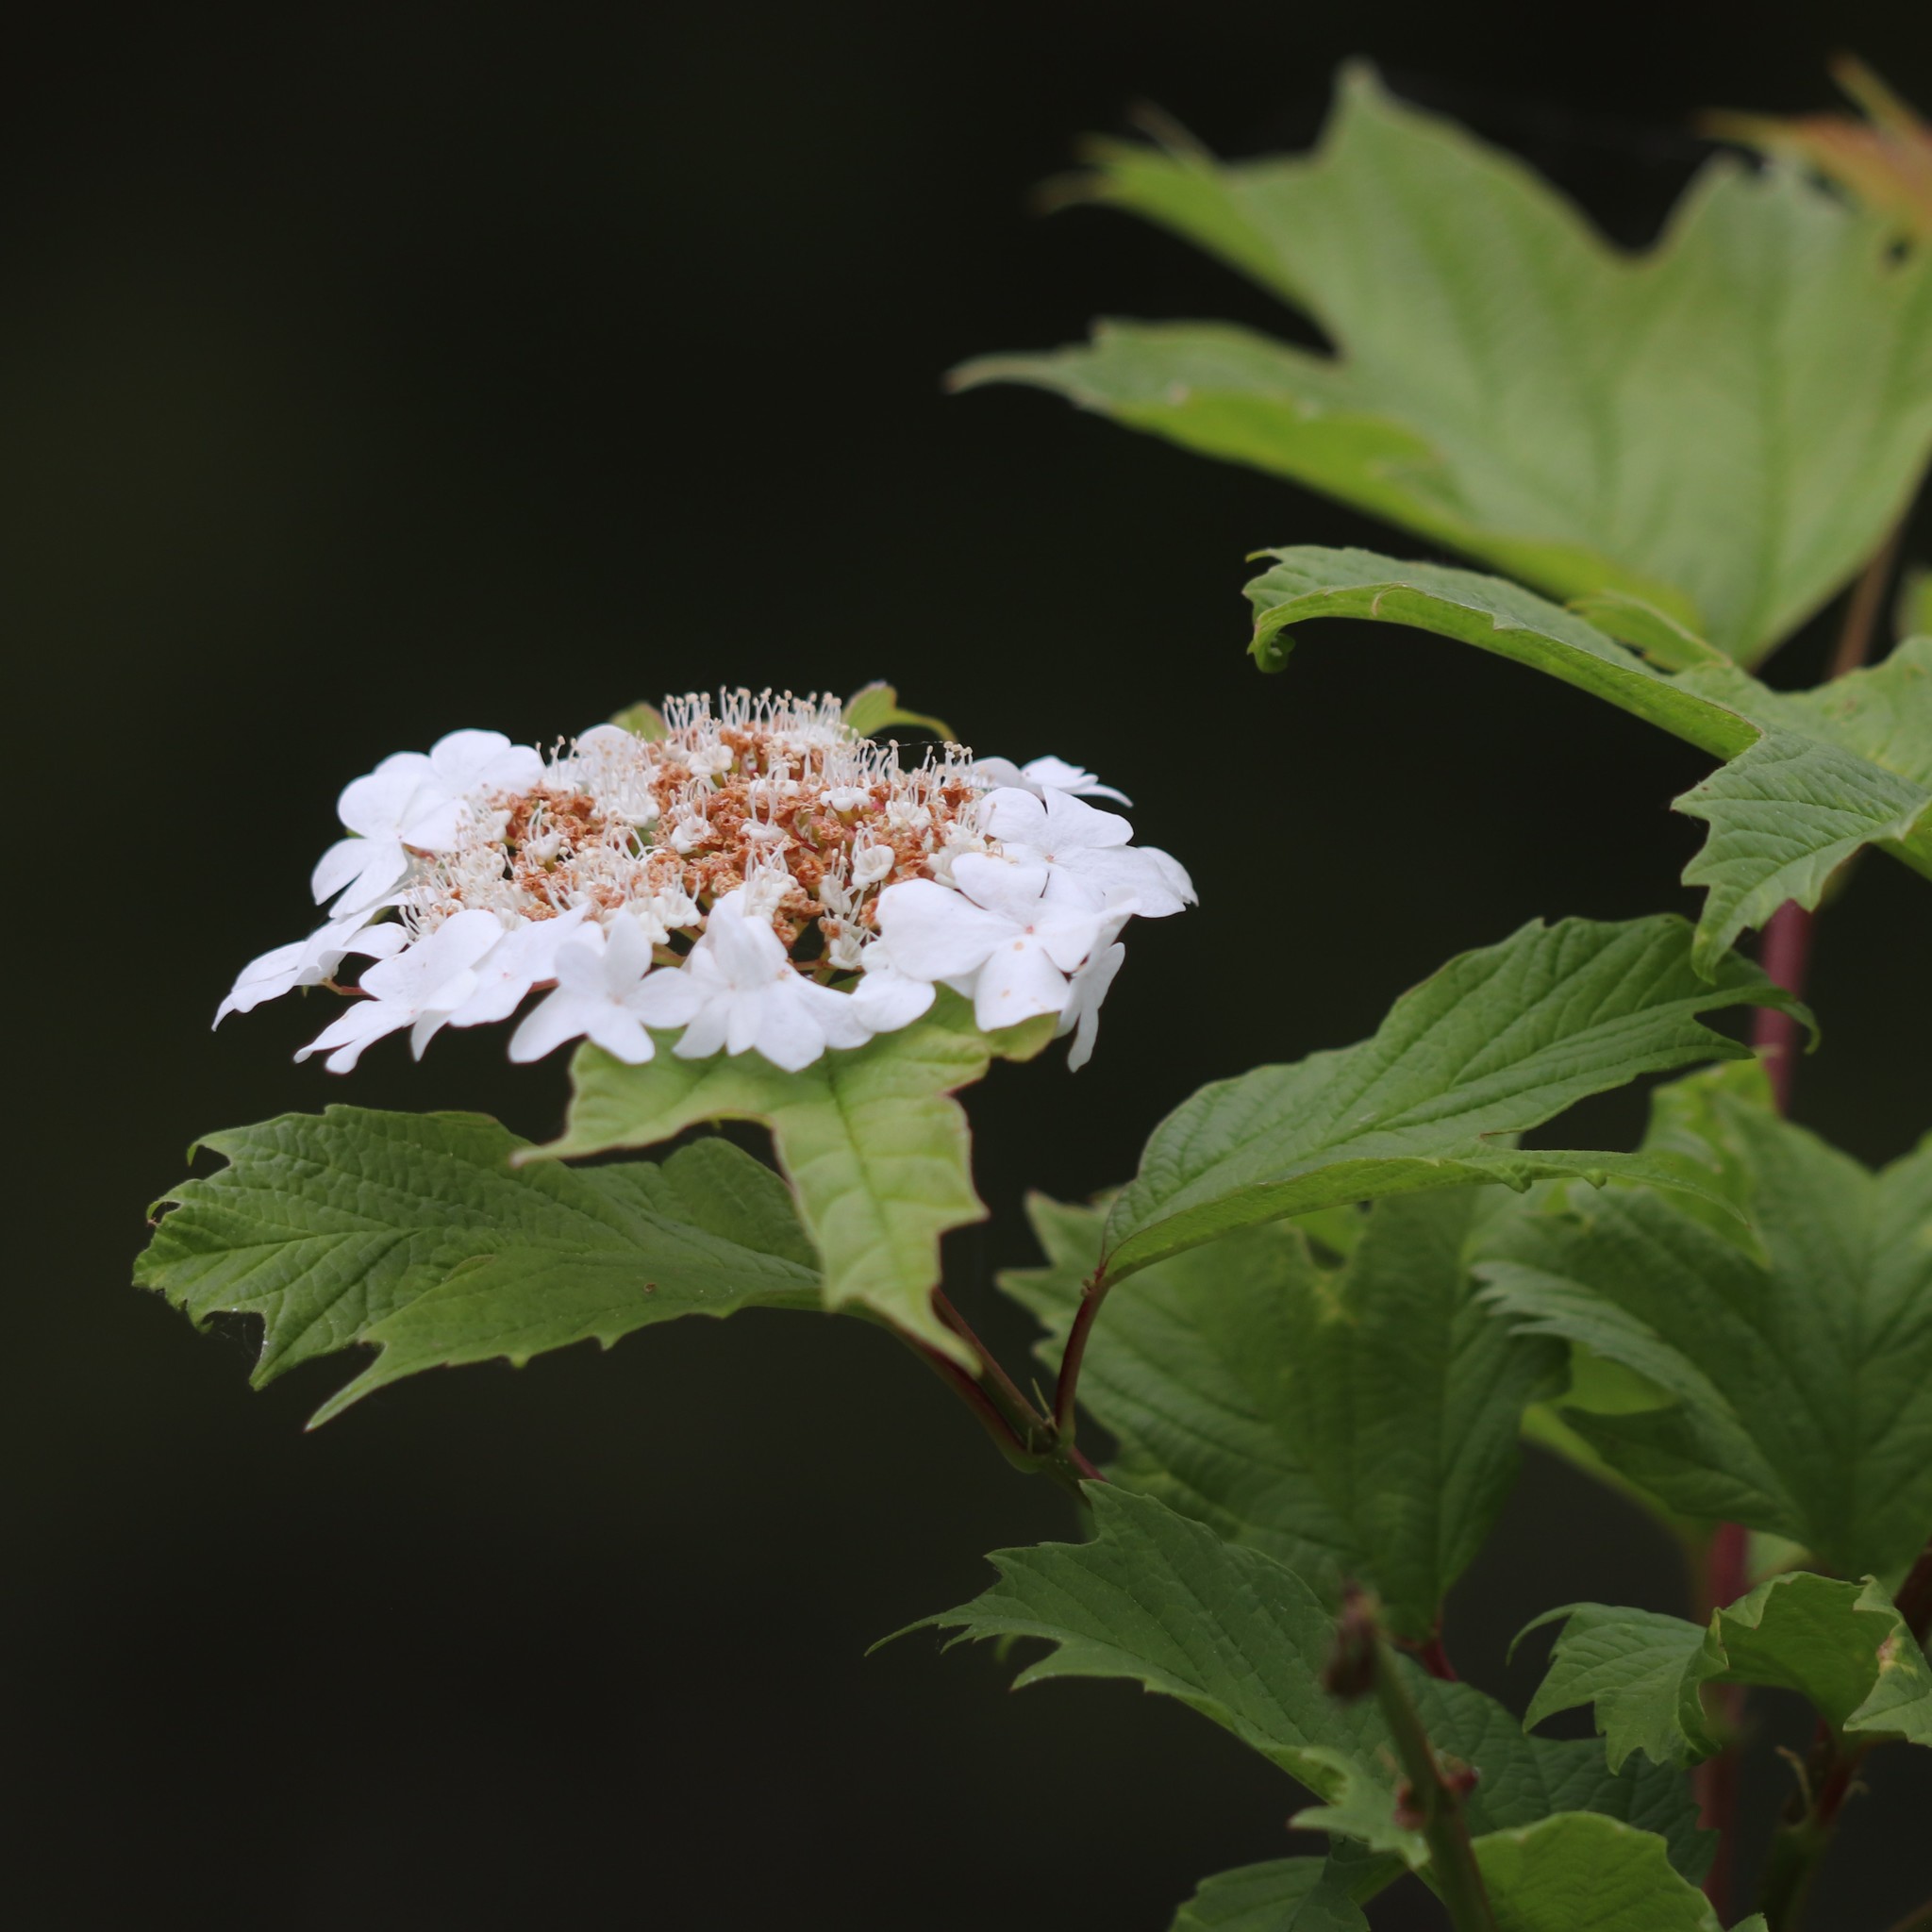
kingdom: Plantae
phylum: Tracheophyta
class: Magnoliopsida
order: Dipsacales
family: Viburnaceae
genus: Viburnum
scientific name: Viburnum opulus
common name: Guelder-rose
